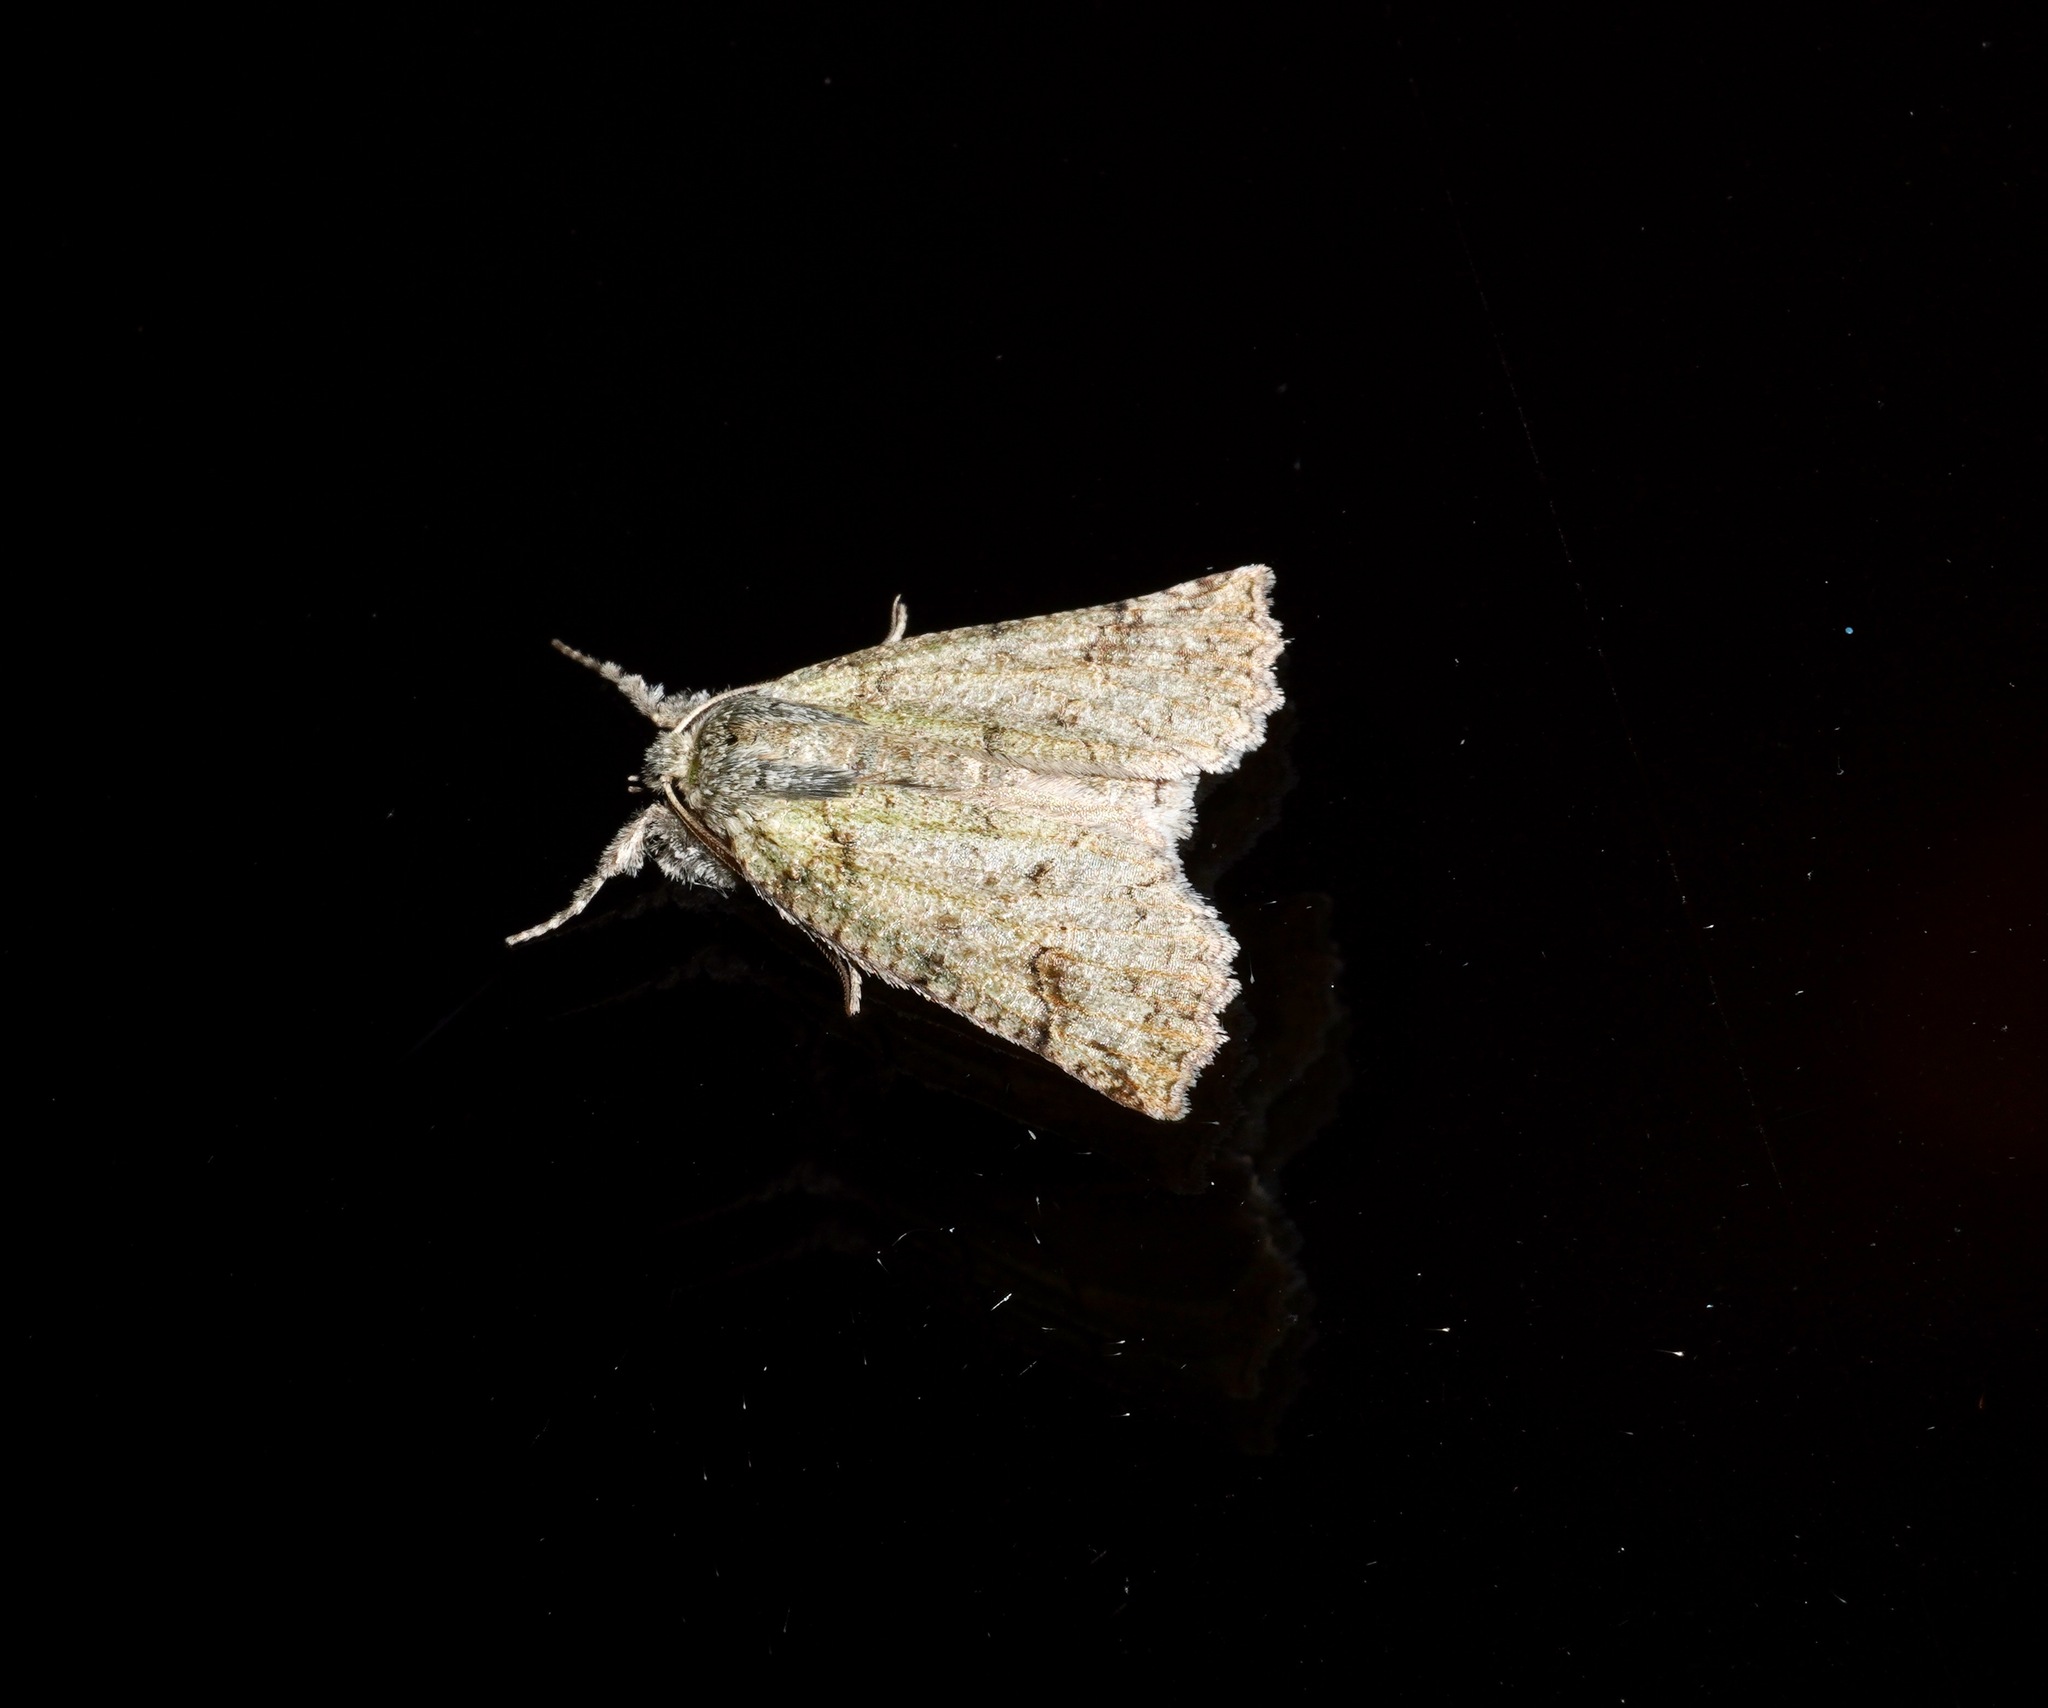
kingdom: Animalia
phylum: Arthropoda
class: Insecta
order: Lepidoptera
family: Geometridae
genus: Declana
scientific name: Declana floccosa
